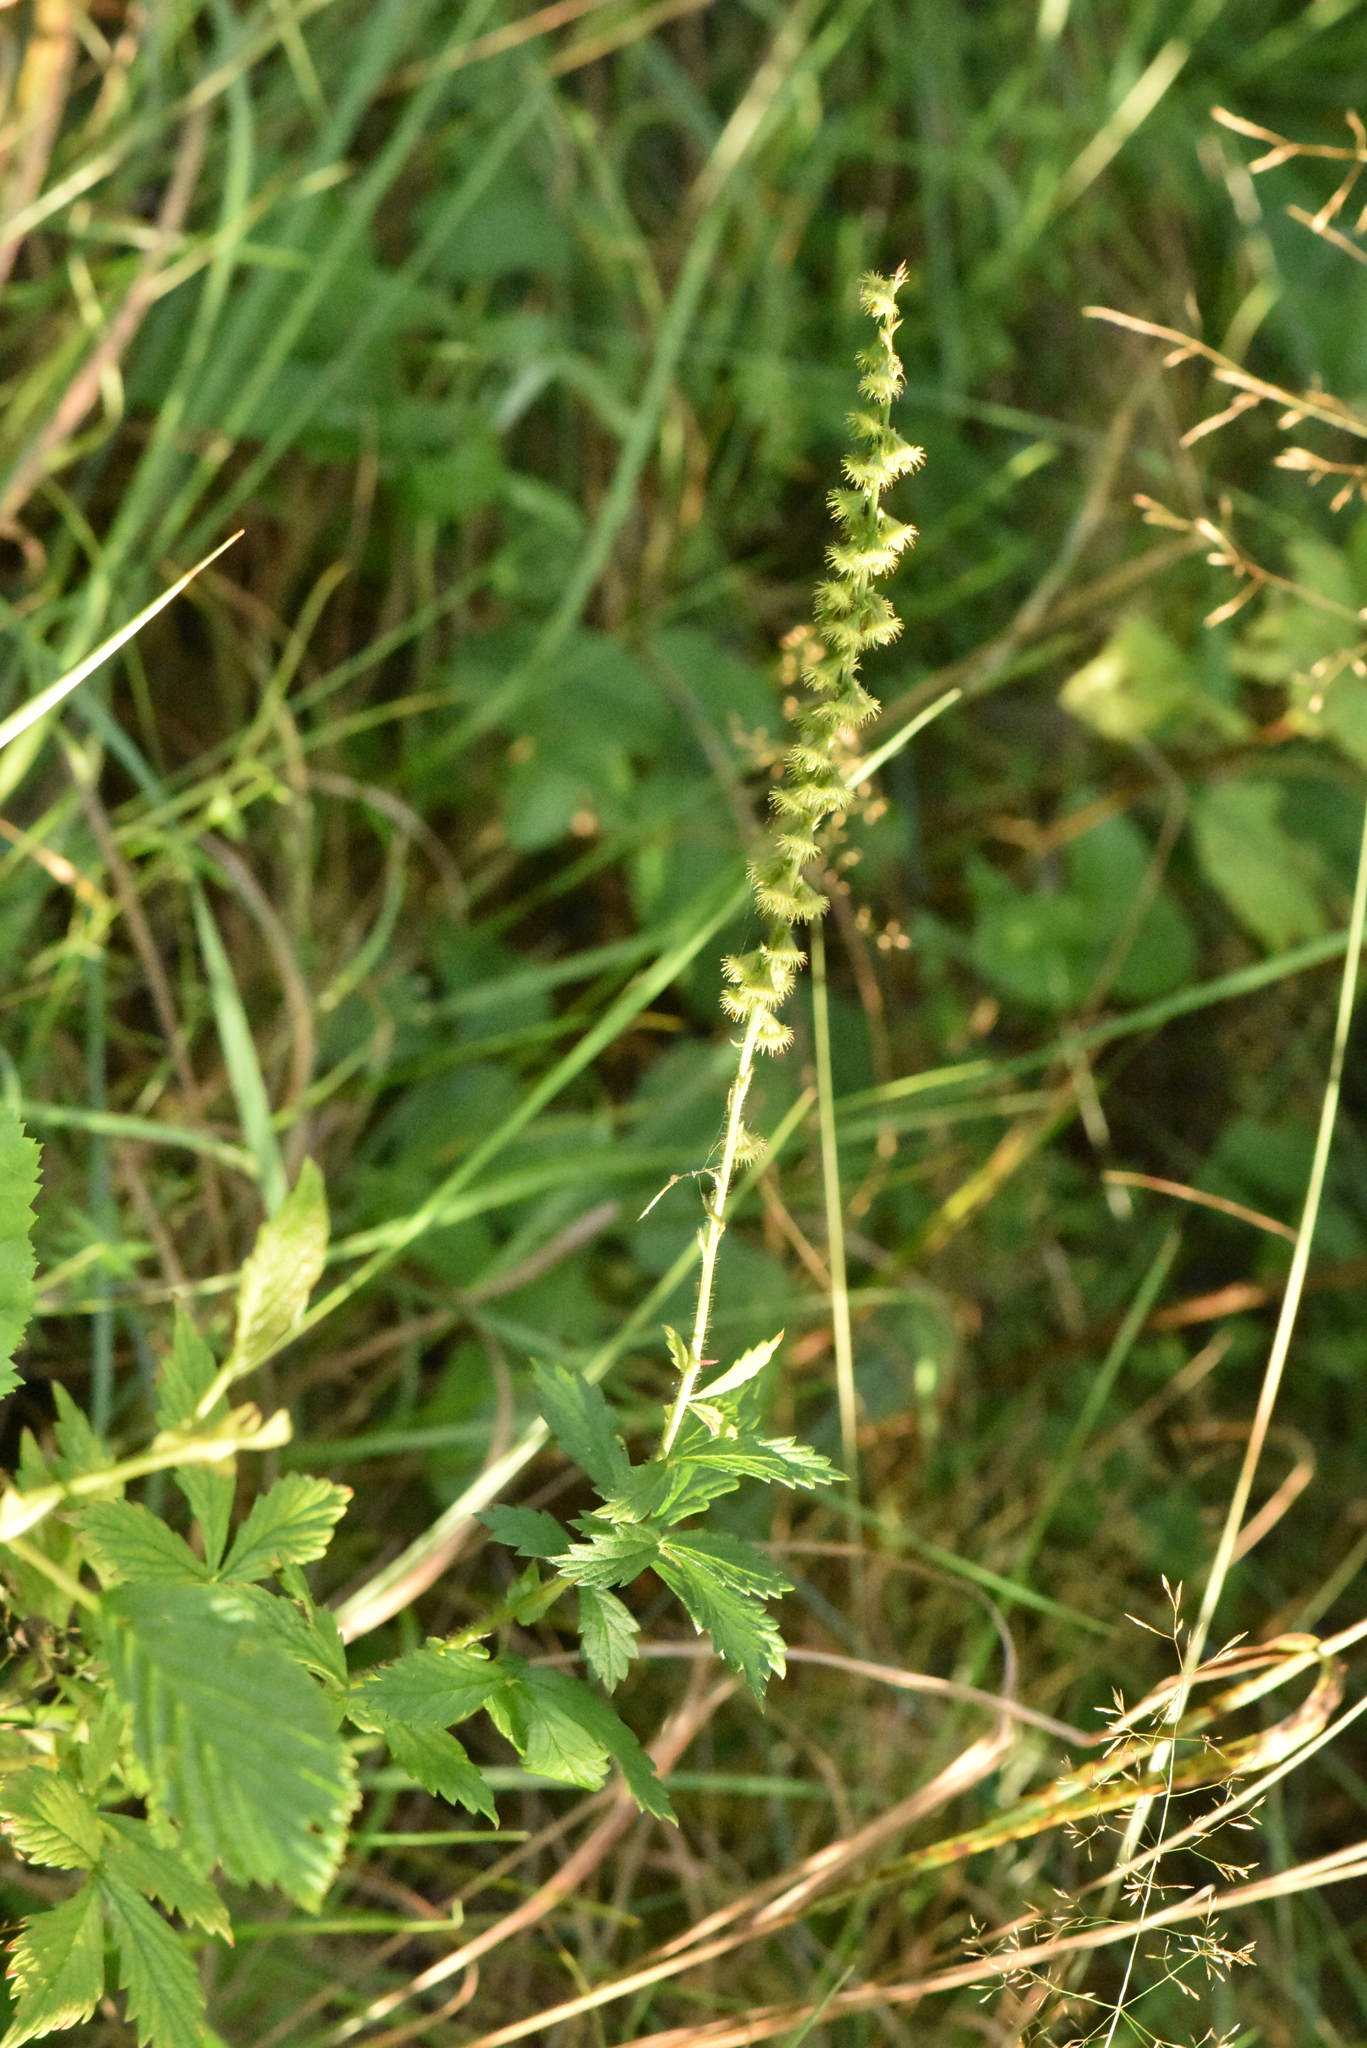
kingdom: Plantae
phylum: Tracheophyta
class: Magnoliopsida
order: Rosales
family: Rosaceae
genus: Agrimonia
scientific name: Agrimonia pilosa
